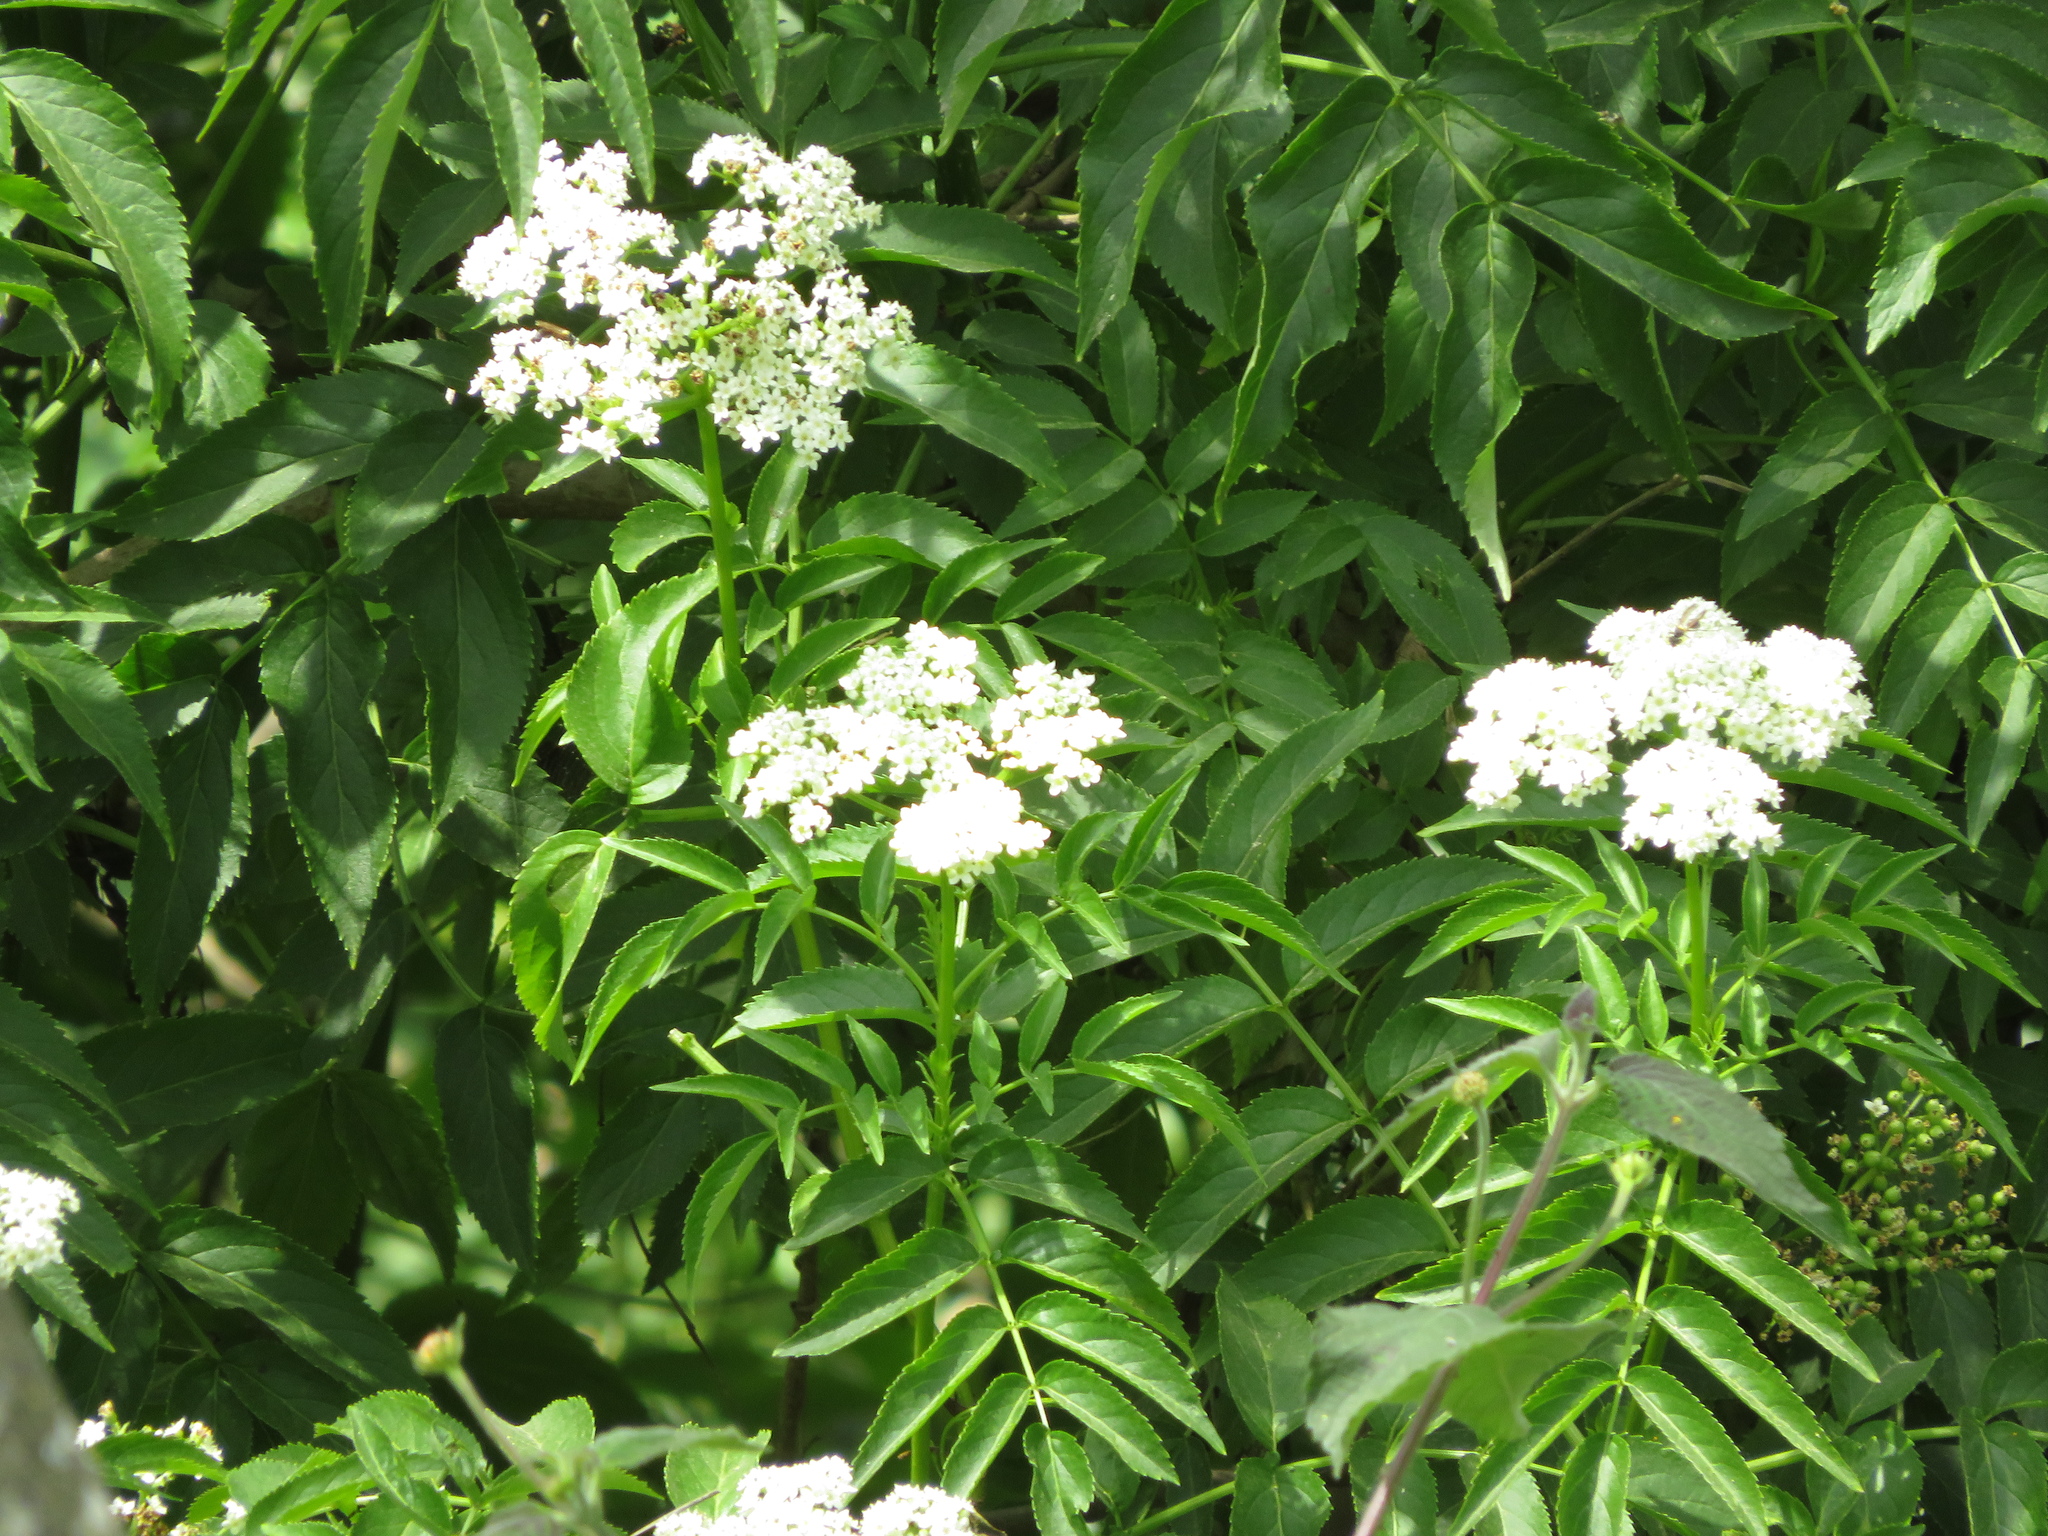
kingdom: Plantae
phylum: Tracheophyta
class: Magnoliopsida
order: Dipsacales
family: Viburnaceae
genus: Sambucus
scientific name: Sambucus australis
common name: Southern elder
